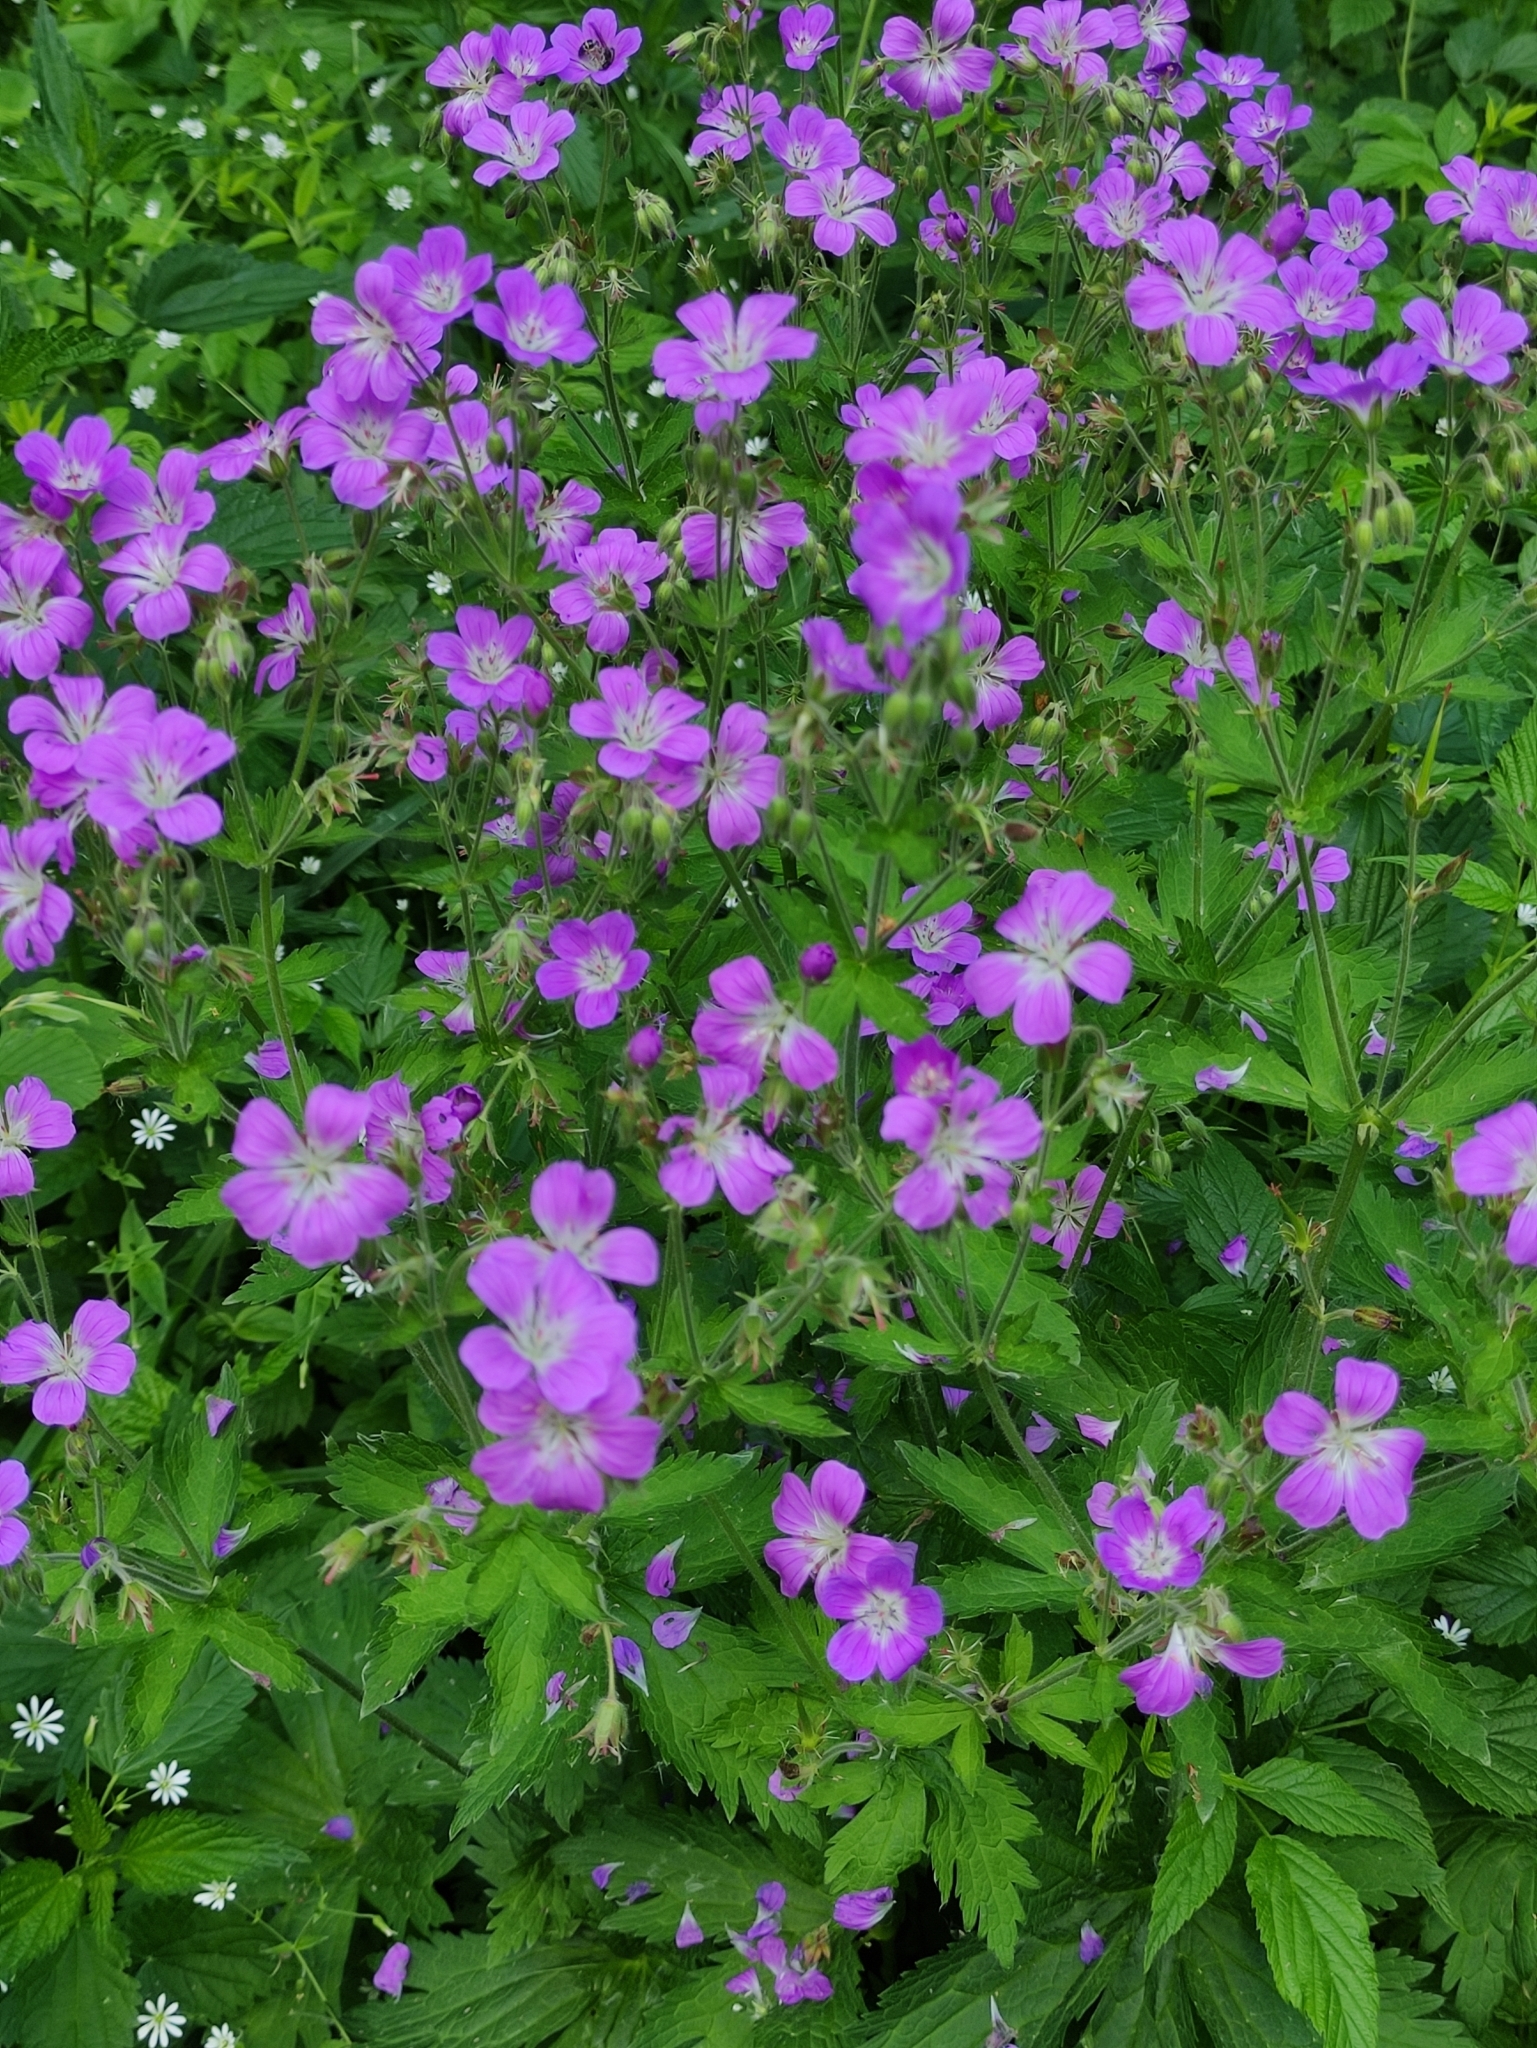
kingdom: Plantae
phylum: Tracheophyta
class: Magnoliopsida
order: Geraniales
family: Geraniaceae
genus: Geranium
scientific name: Geranium sylvaticum
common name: Wood crane's-bill
